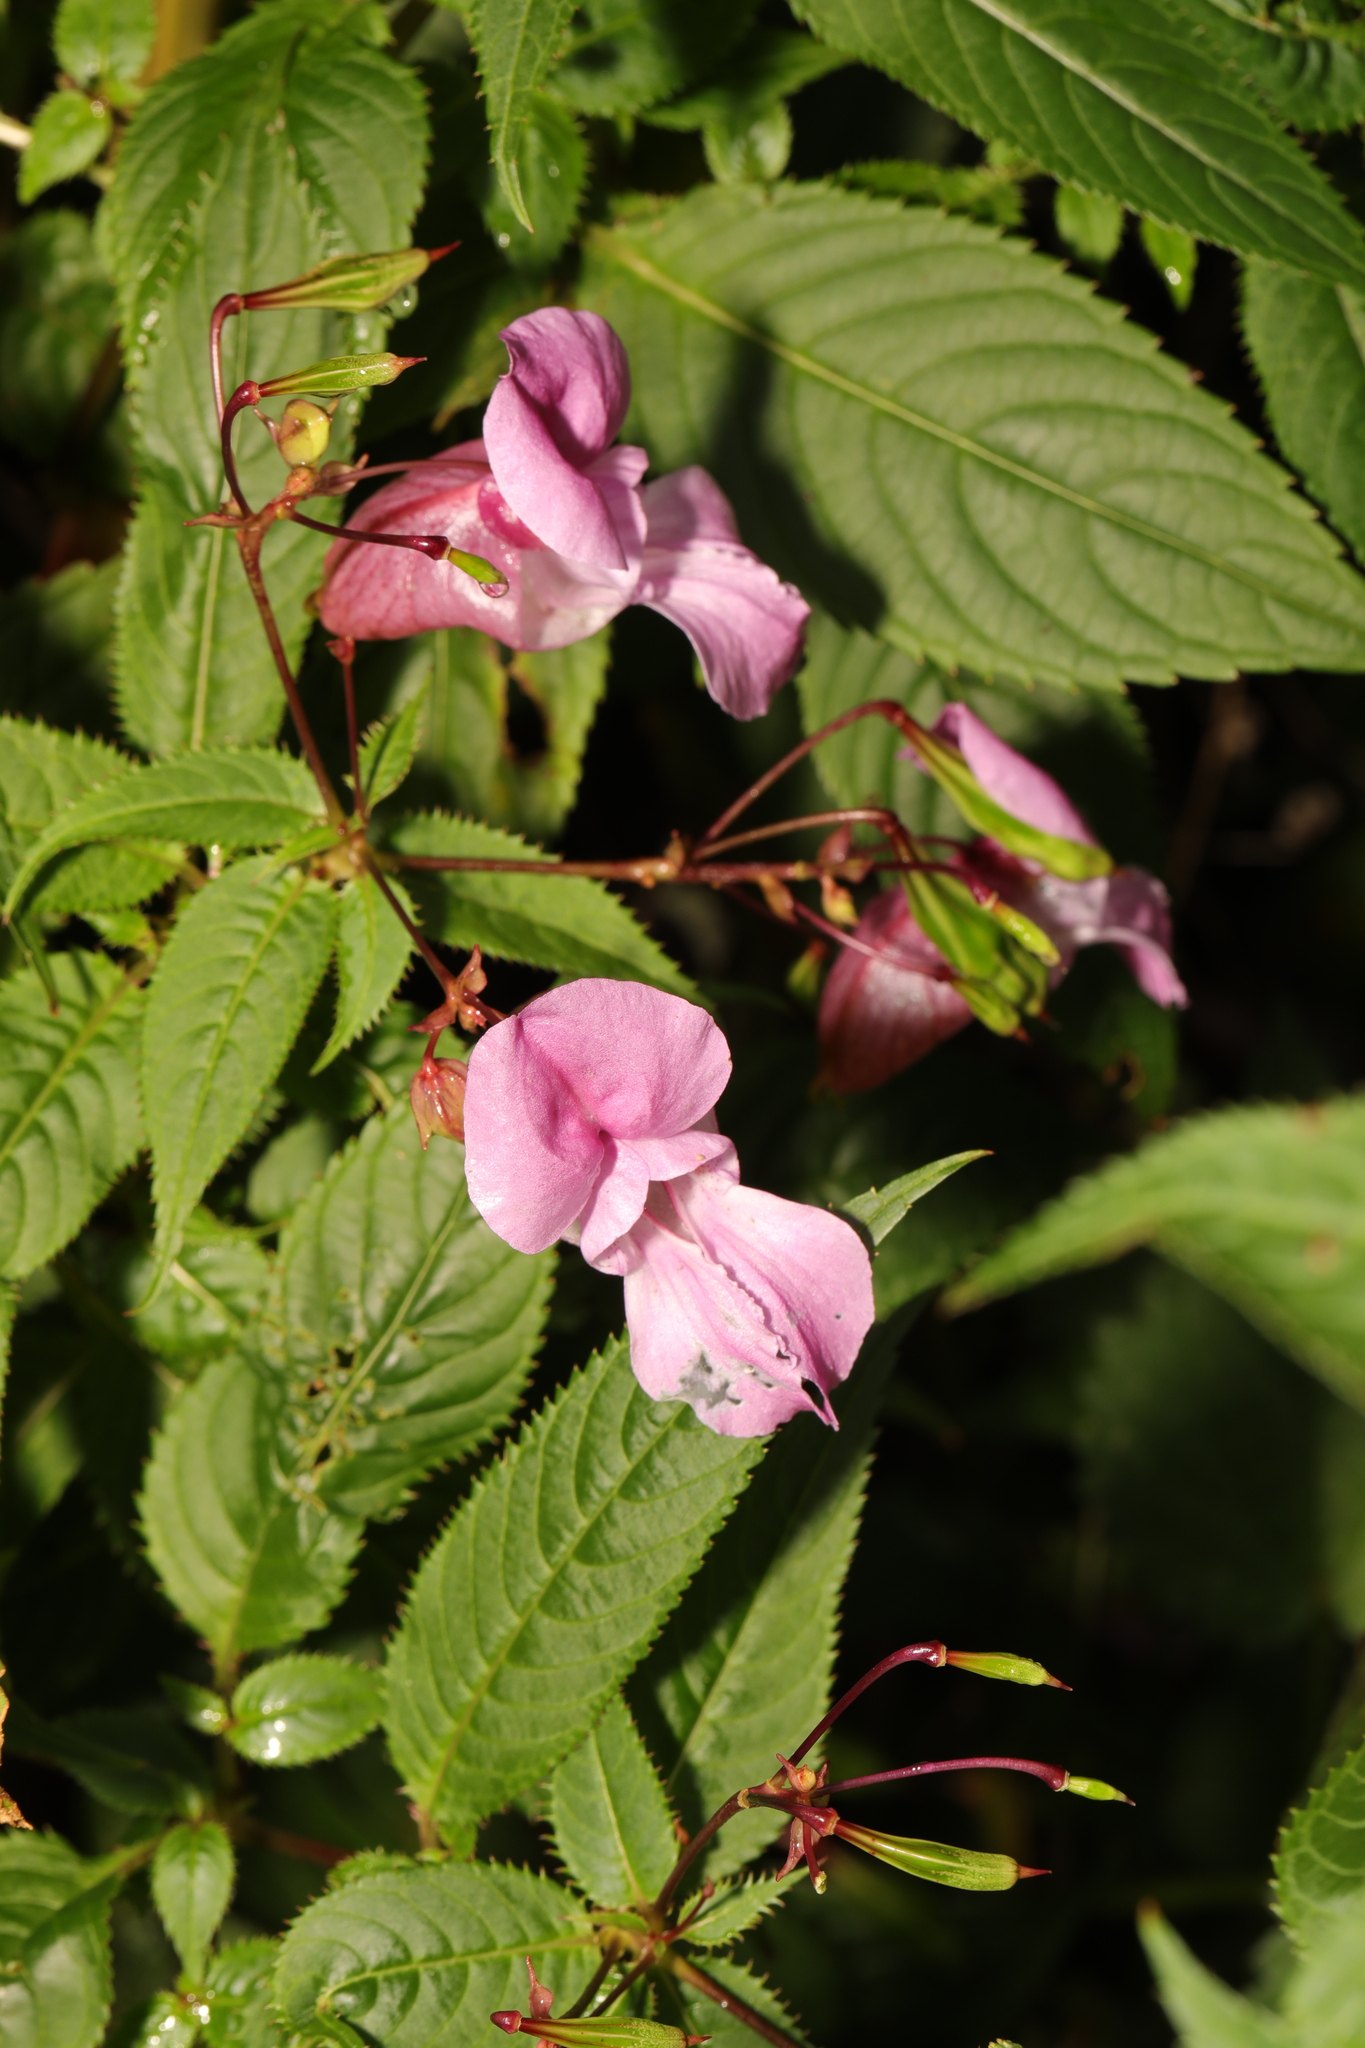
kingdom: Plantae
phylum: Tracheophyta
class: Magnoliopsida
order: Ericales
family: Balsaminaceae
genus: Impatiens
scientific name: Impatiens glandulifera
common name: Himalayan balsam
